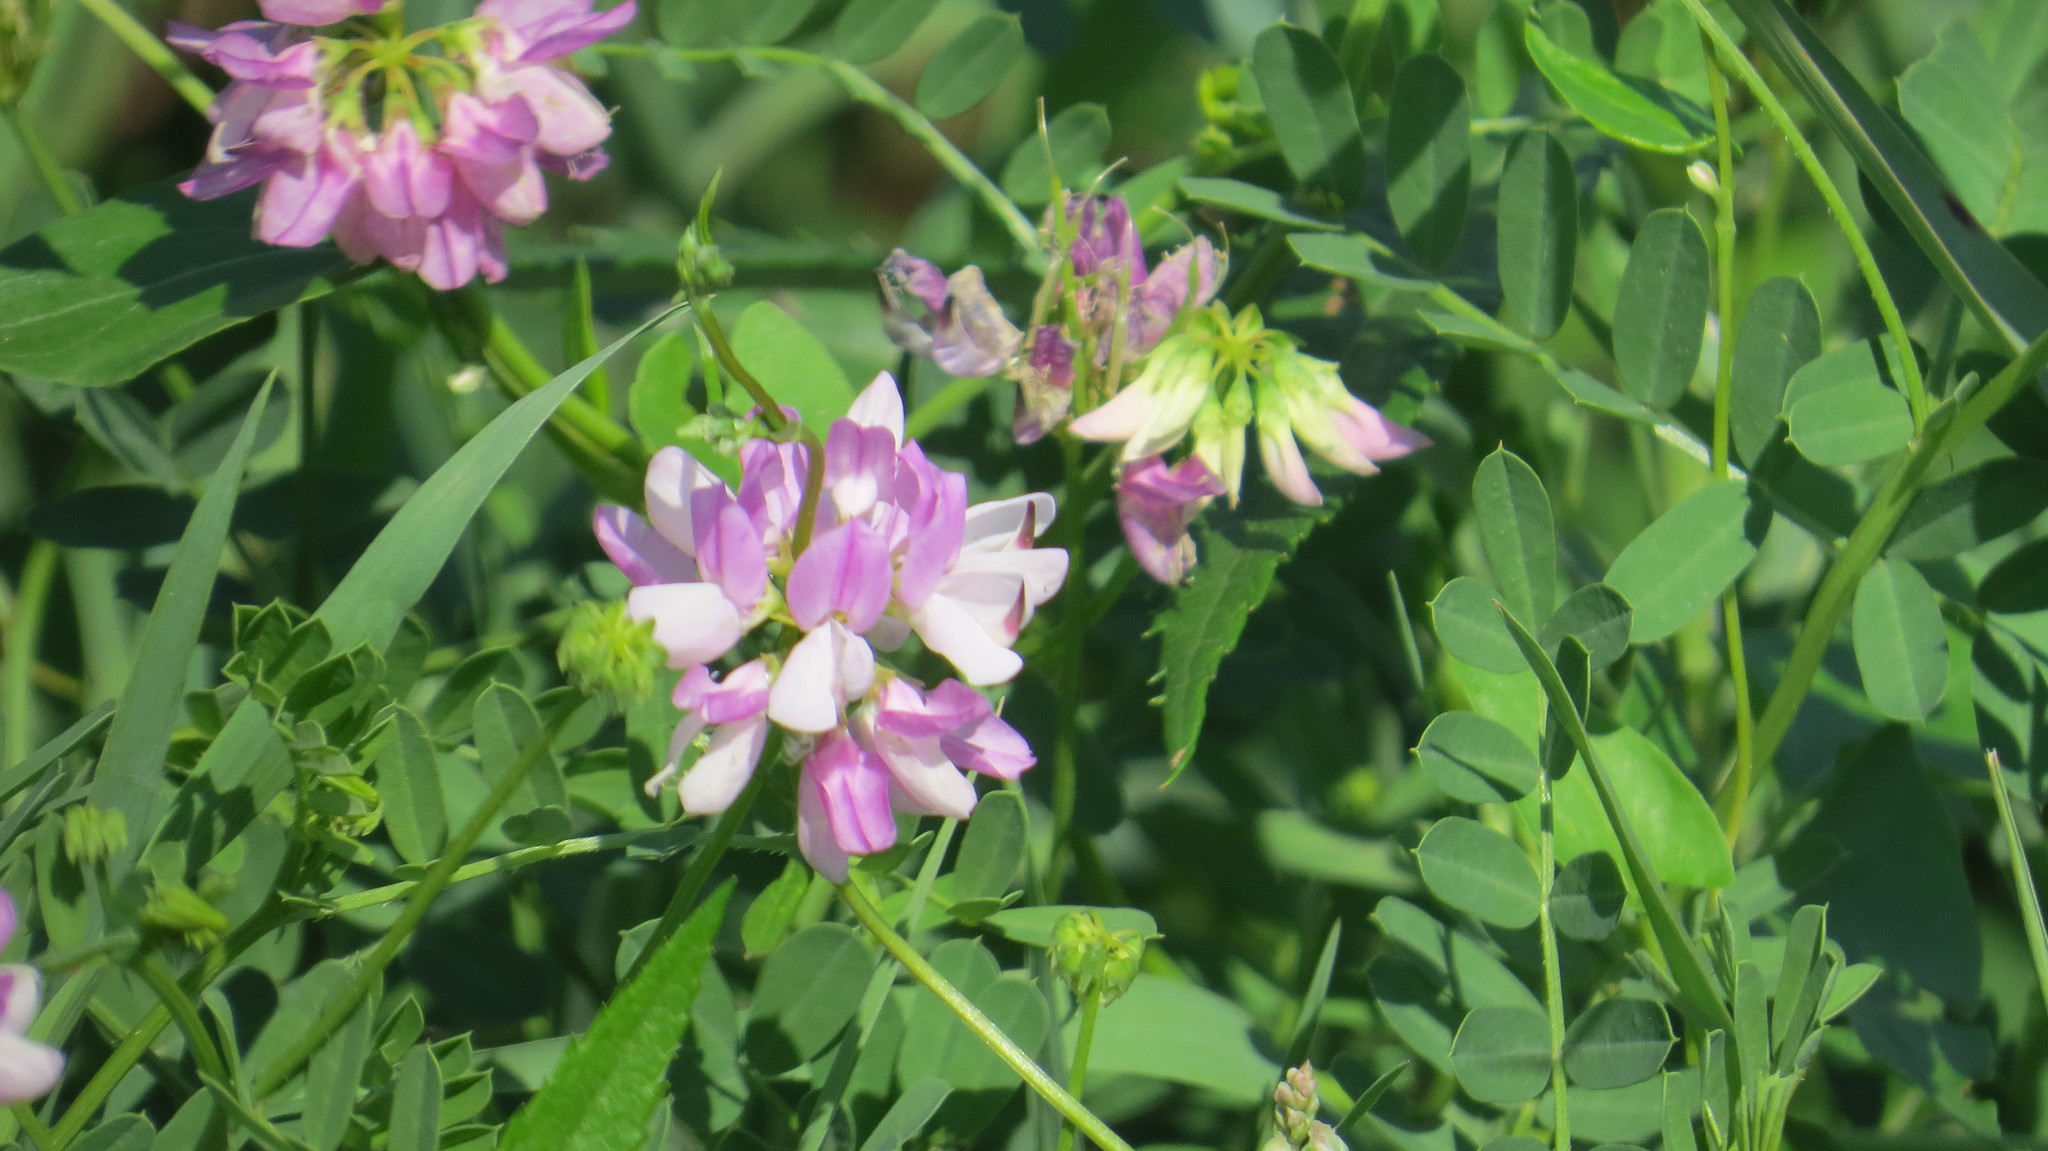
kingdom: Plantae
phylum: Tracheophyta
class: Magnoliopsida
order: Fabales
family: Fabaceae
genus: Coronilla
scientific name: Coronilla varia
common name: Crownvetch
